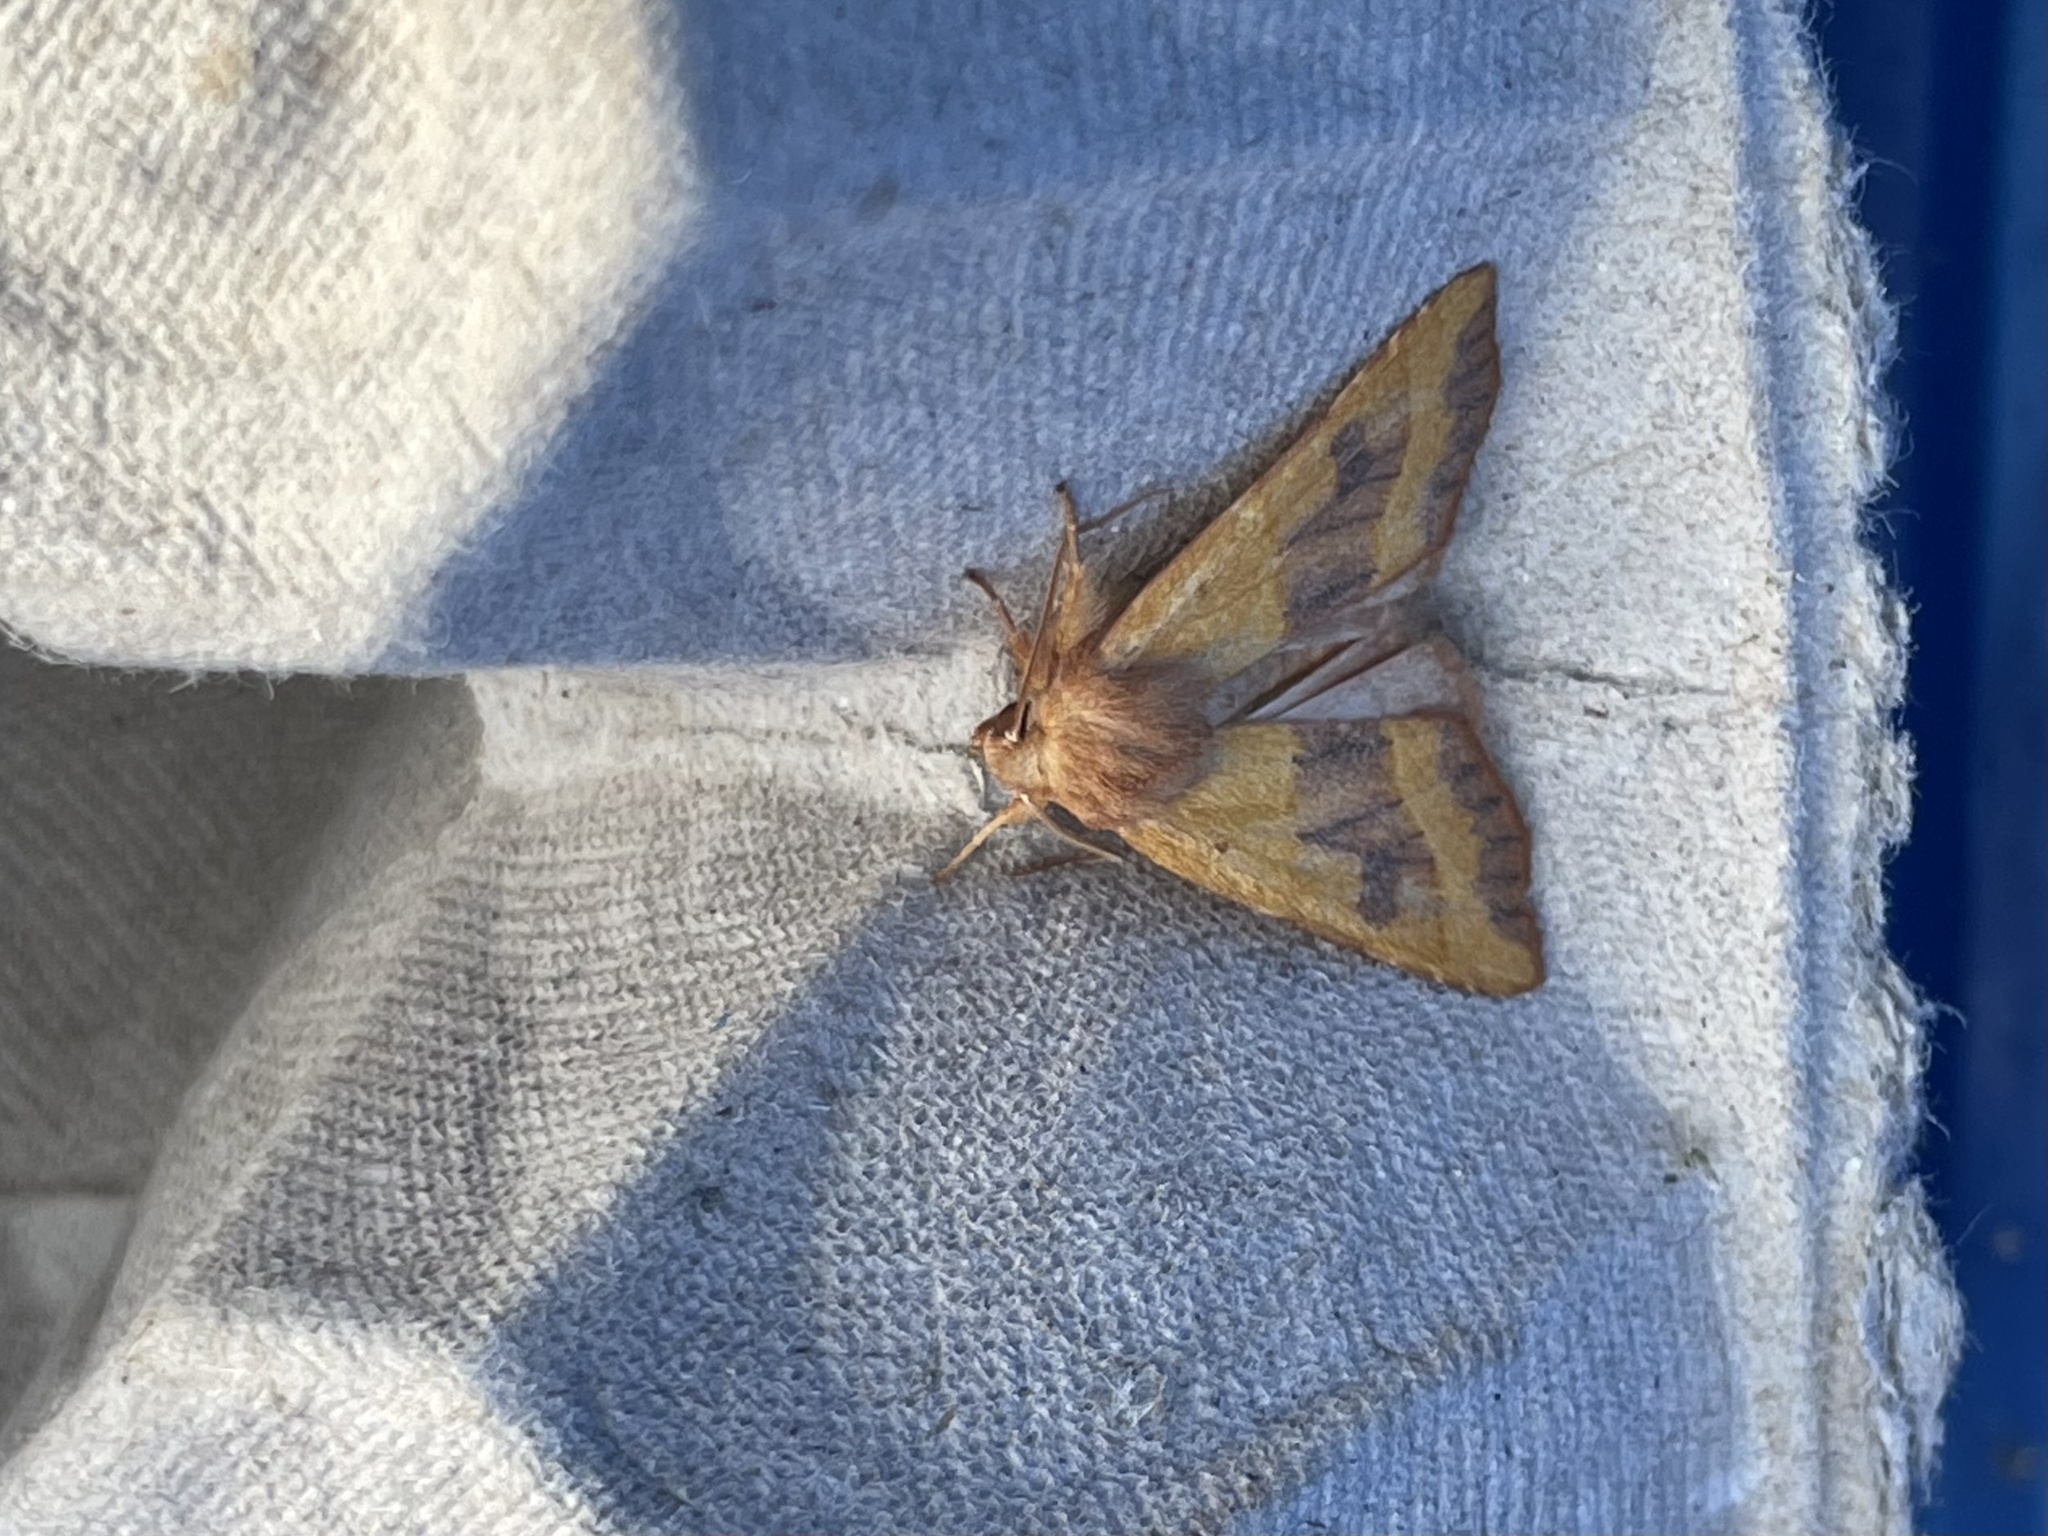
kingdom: Animalia
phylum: Arthropoda
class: Insecta
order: Lepidoptera
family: Noctuidae
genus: Atethmia
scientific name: Atethmia centrago
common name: Centre-barred sallow
